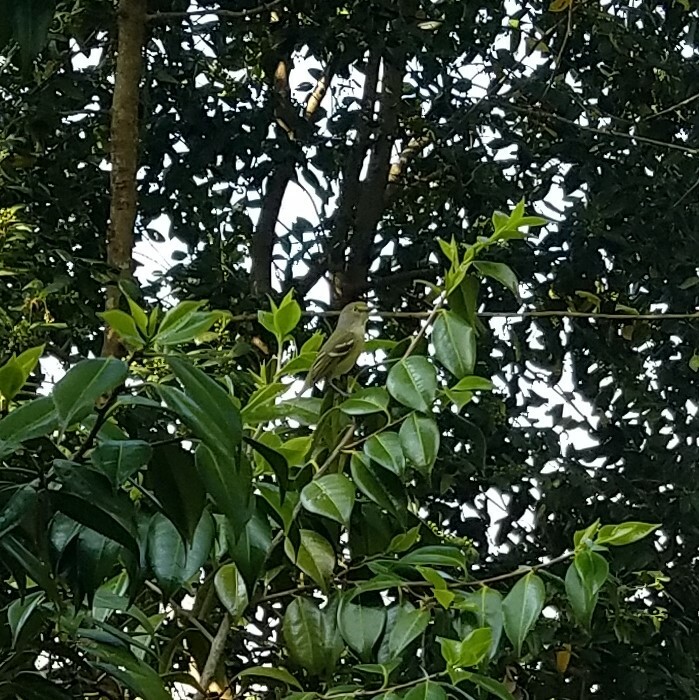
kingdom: Animalia
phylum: Chordata
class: Aves
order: Passeriformes
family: Vireonidae
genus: Vireo
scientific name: Vireo griseus
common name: White-eyed vireo
